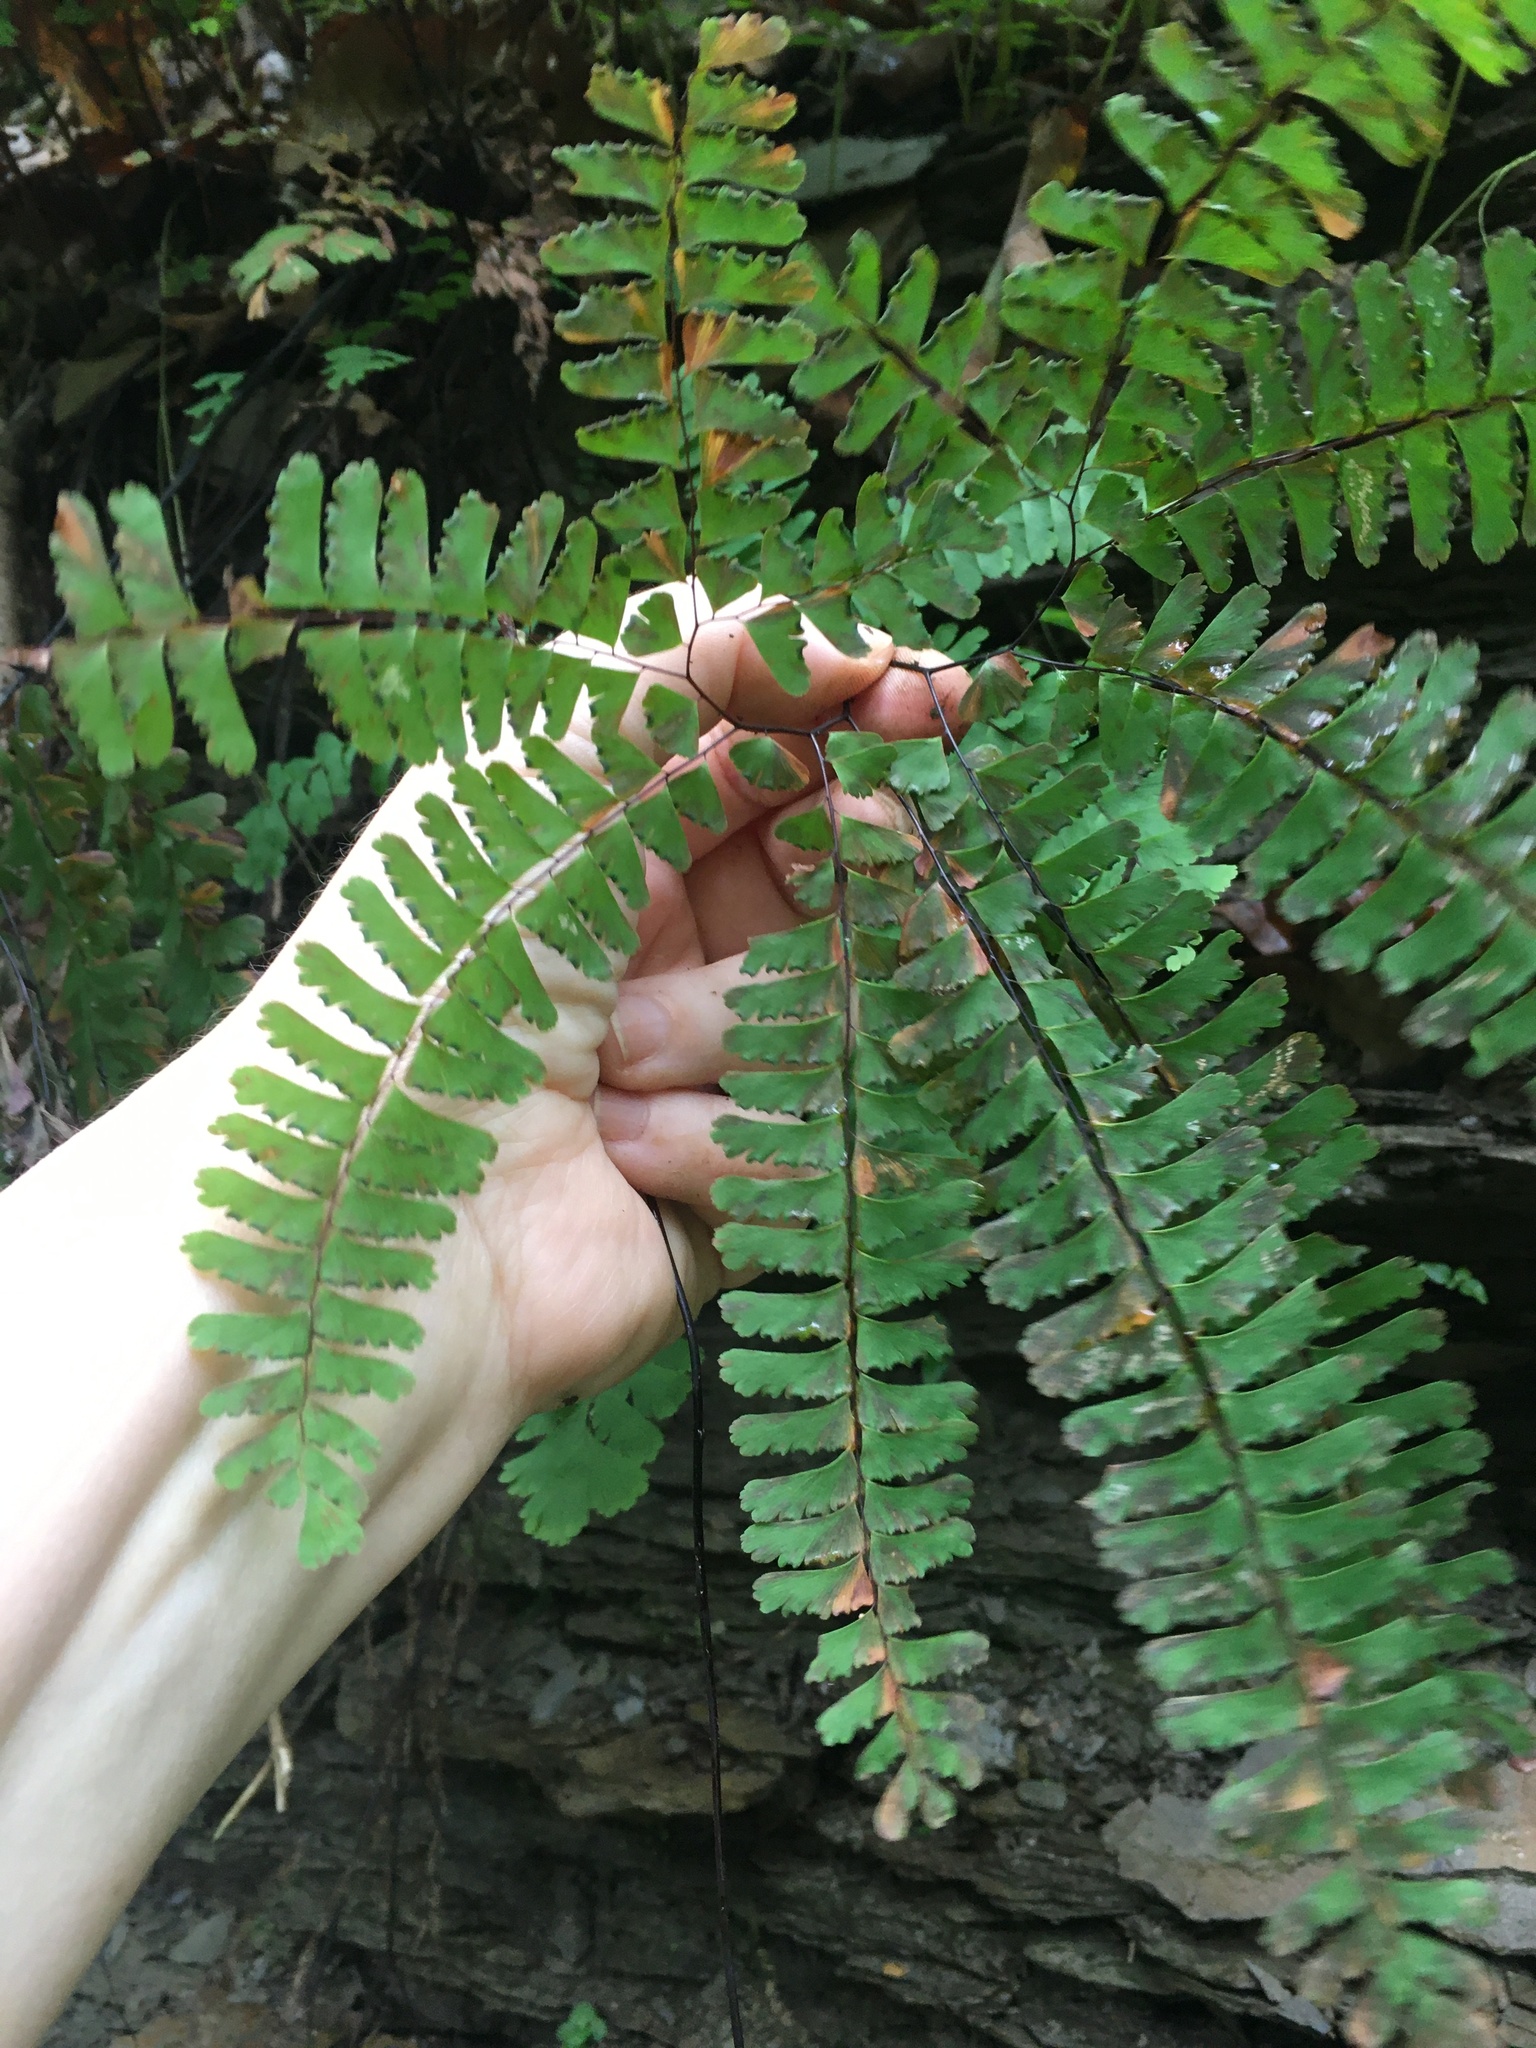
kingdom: Plantae
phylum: Tracheophyta
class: Polypodiopsida
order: Polypodiales
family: Pteridaceae
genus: Adiantum
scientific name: Adiantum pedatum
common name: Five-finger fern
